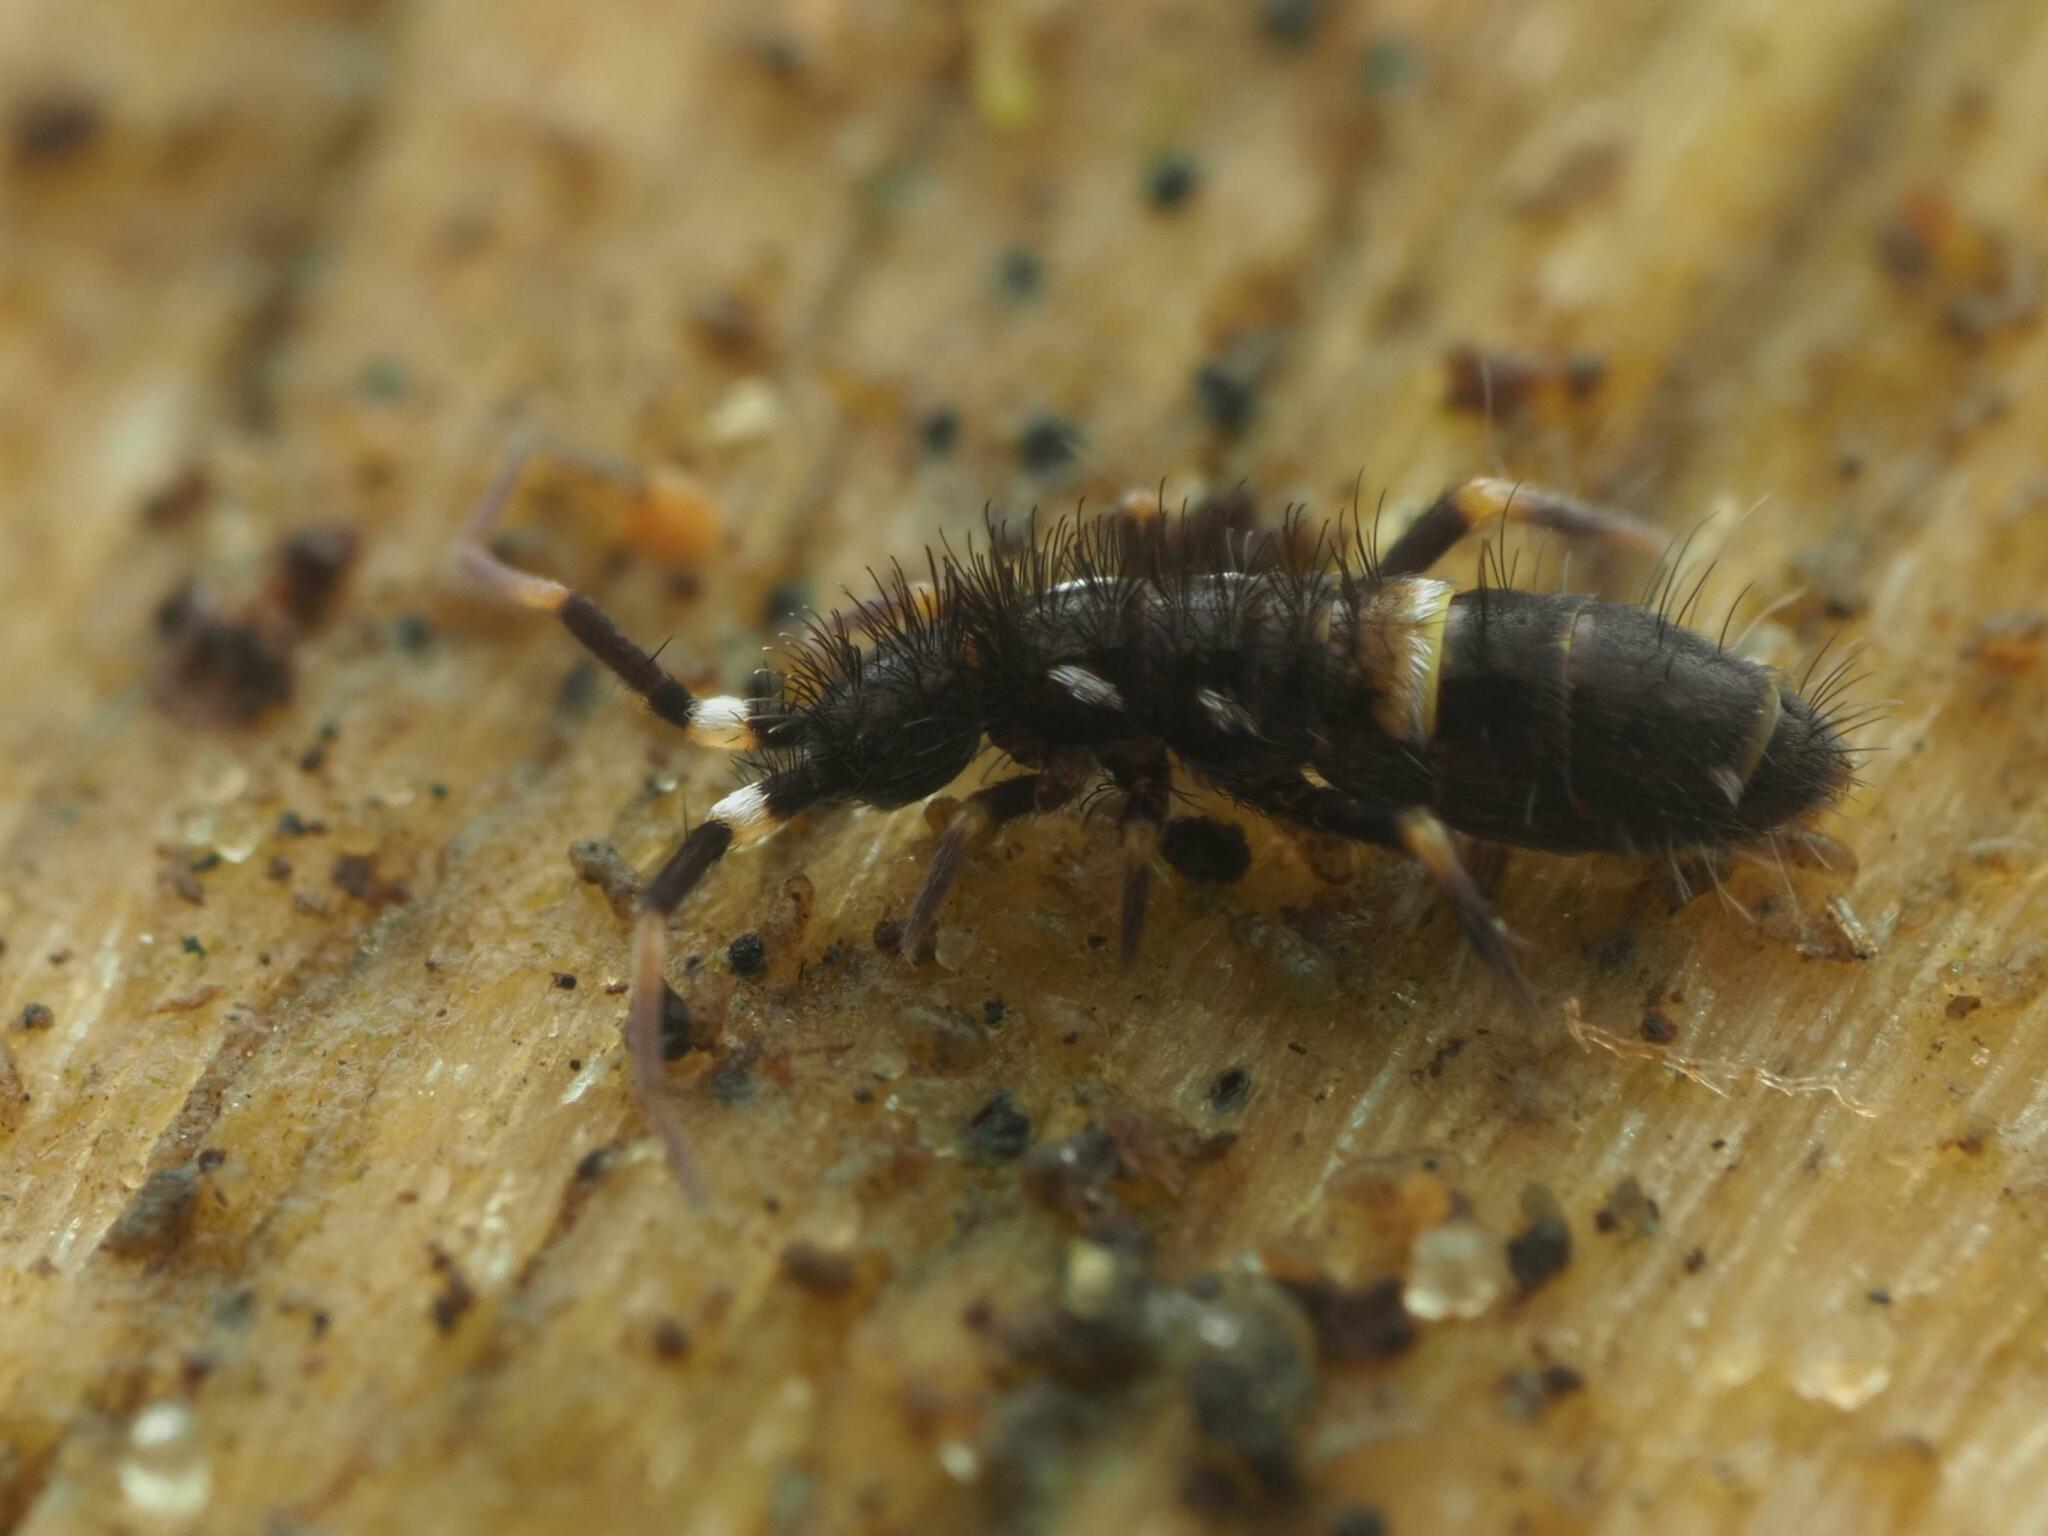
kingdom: Animalia
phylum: Arthropoda
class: Collembola
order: Entomobryomorpha
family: Orchesellidae
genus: Orchesella
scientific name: Orchesella cincta
